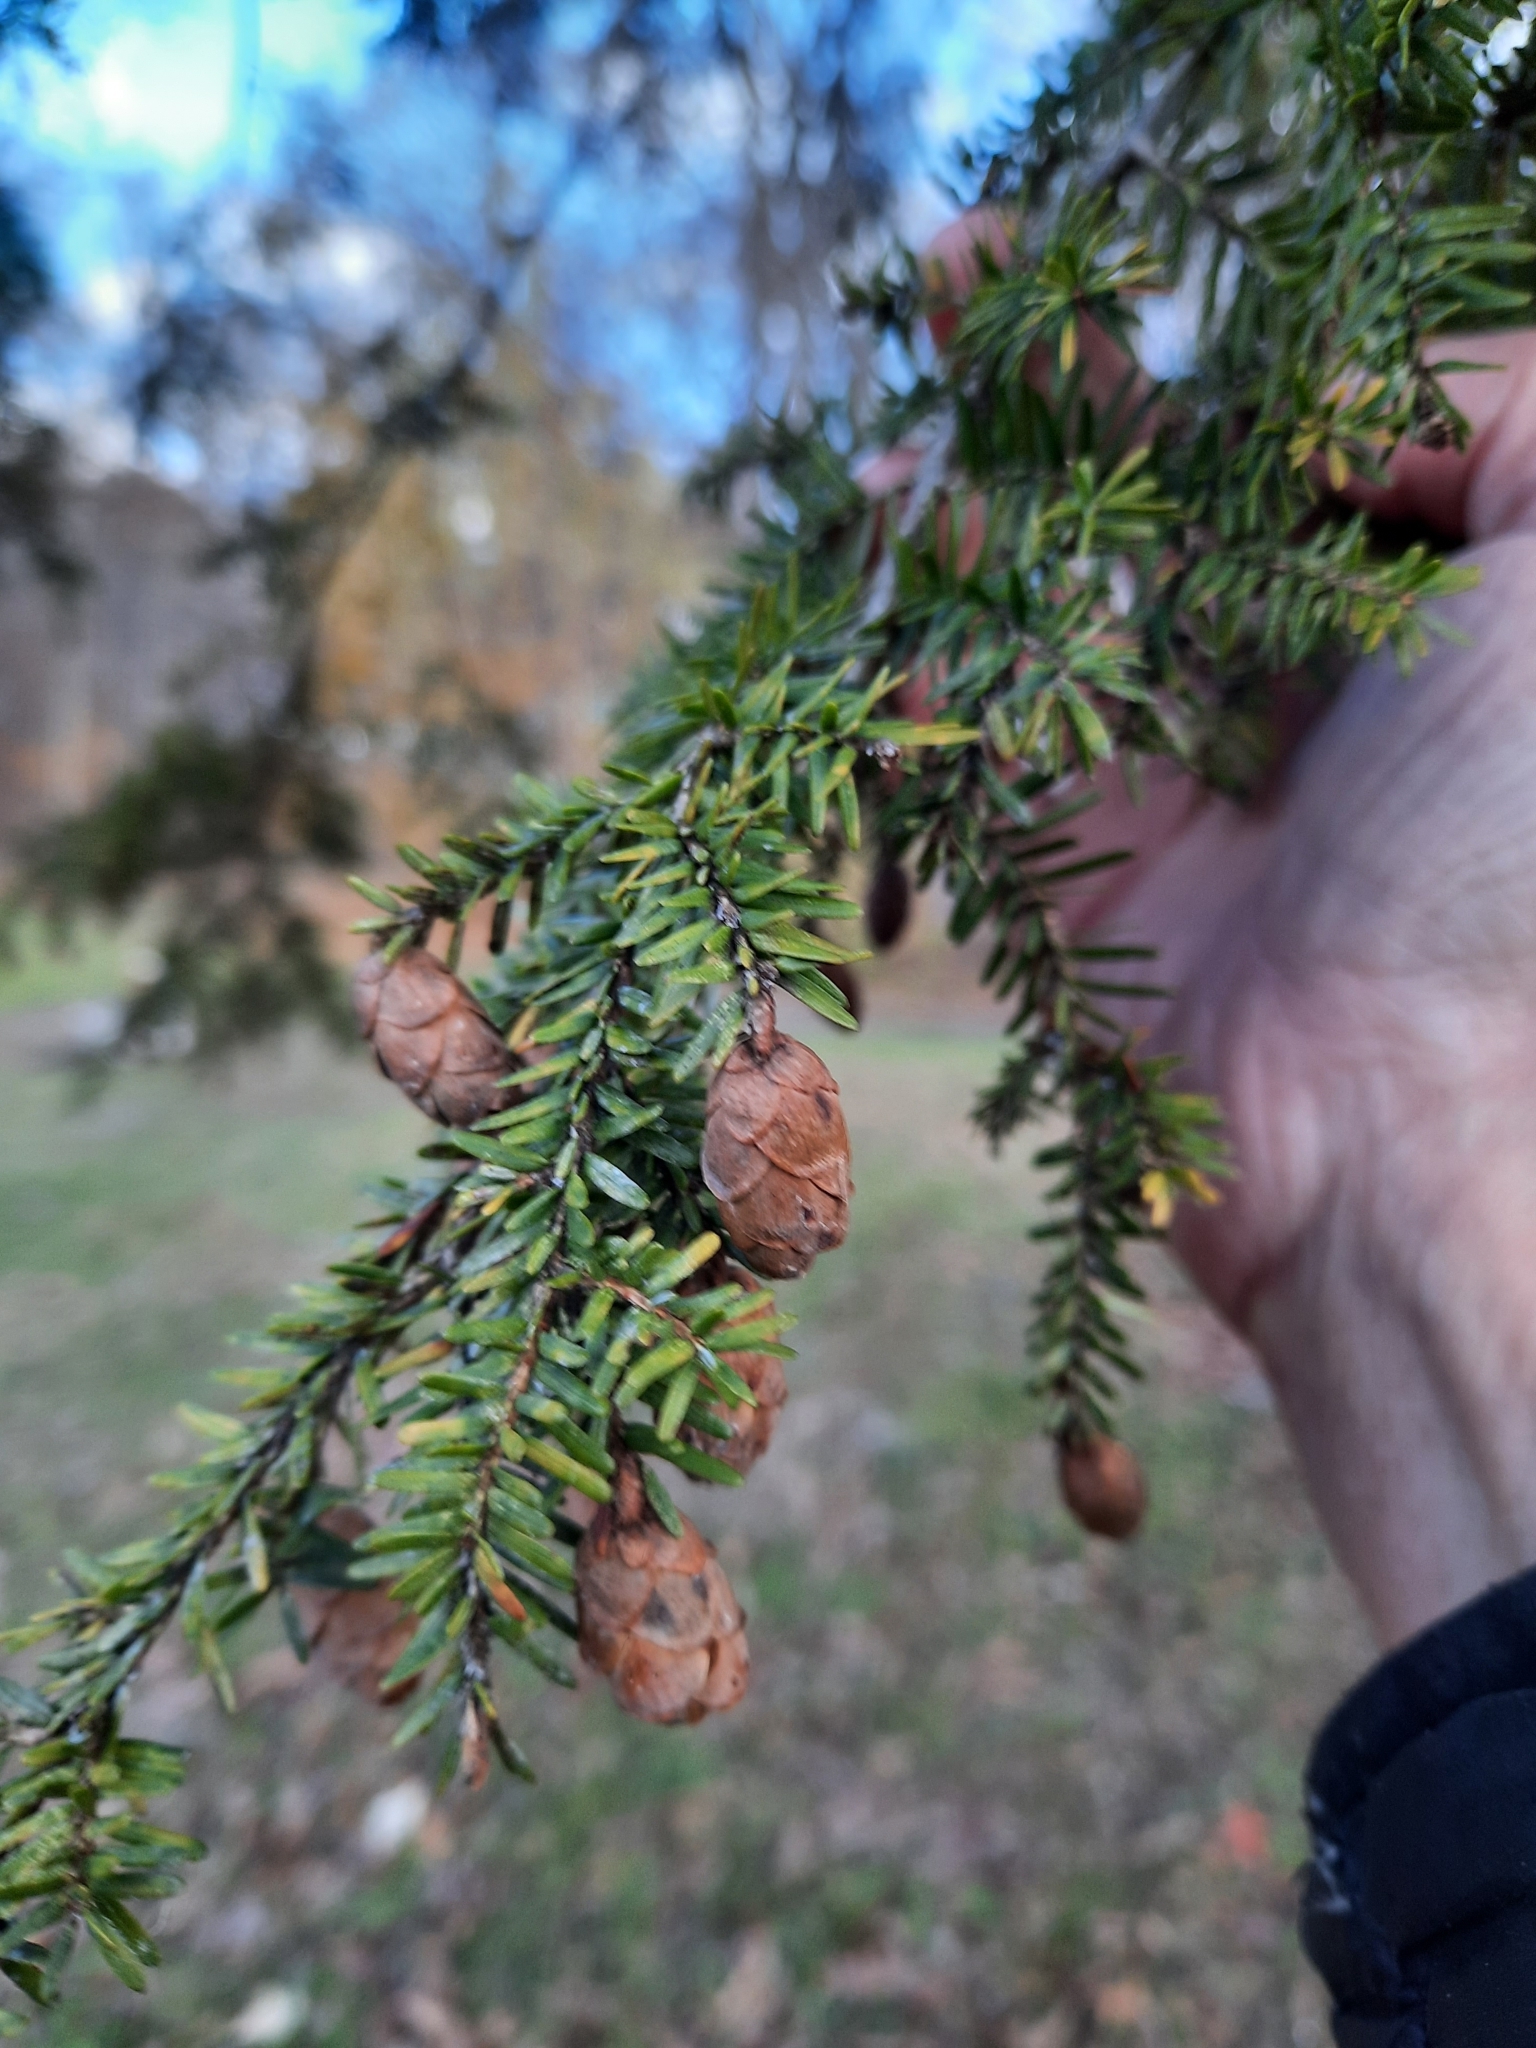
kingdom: Plantae
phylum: Tracheophyta
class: Pinopsida
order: Pinales
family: Pinaceae
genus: Tsuga
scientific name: Tsuga canadensis
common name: Eastern hemlock
